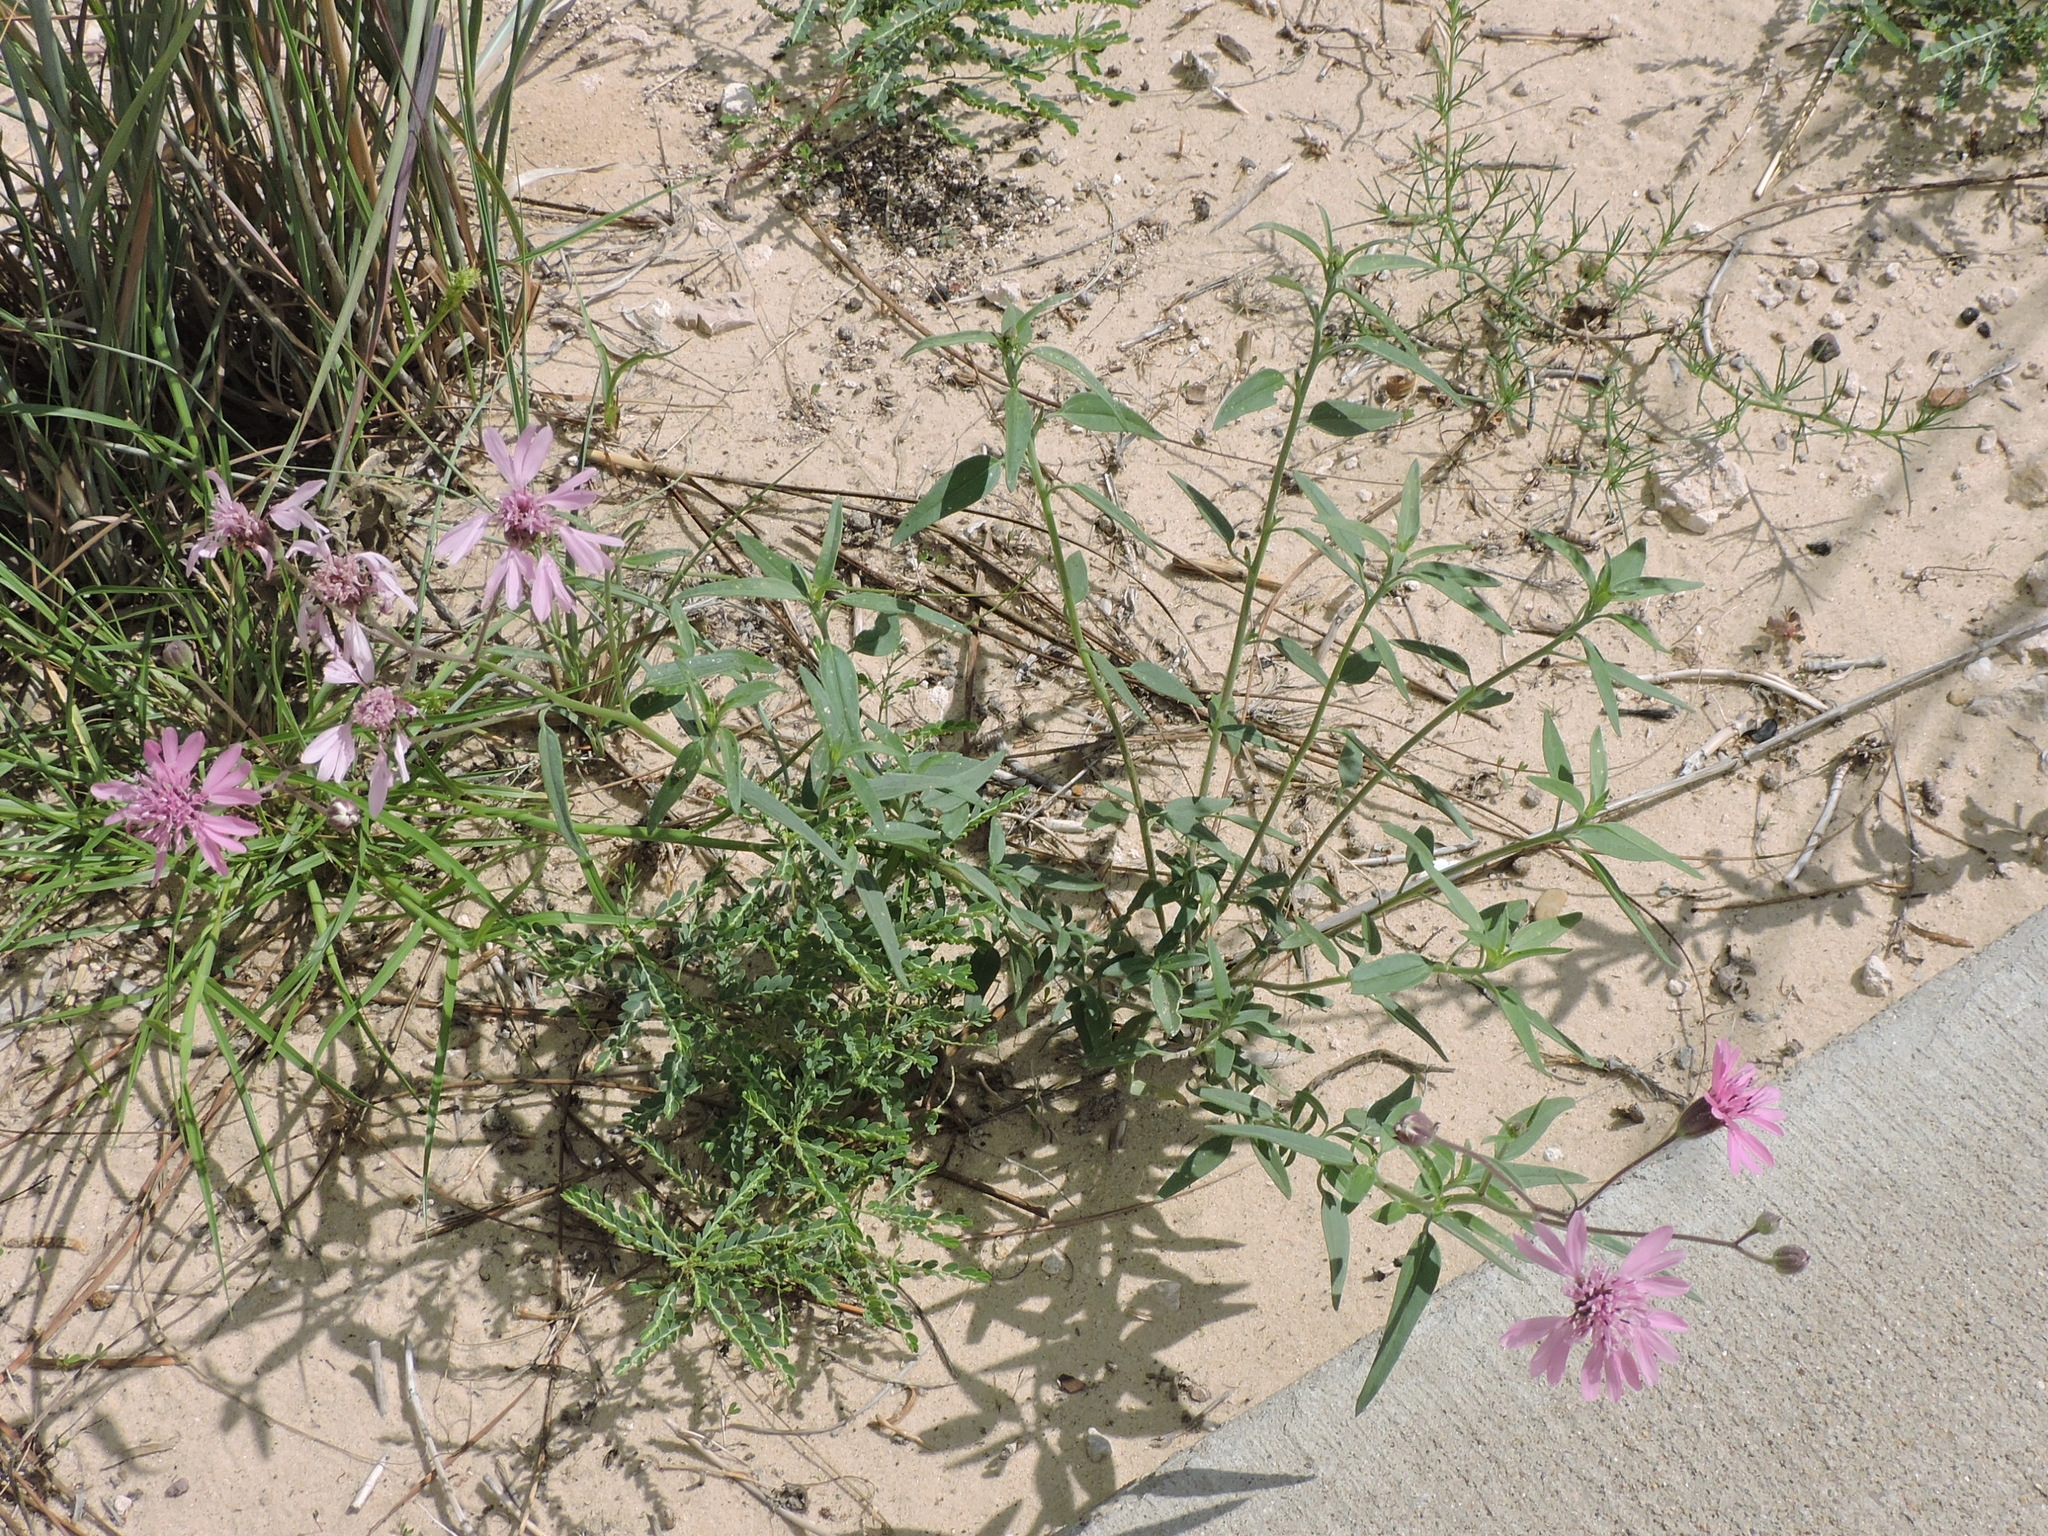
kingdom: Plantae
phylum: Tracheophyta
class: Magnoliopsida
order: Asterales
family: Asteraceae
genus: Palafoxia
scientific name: Palafoxia sphacelata
